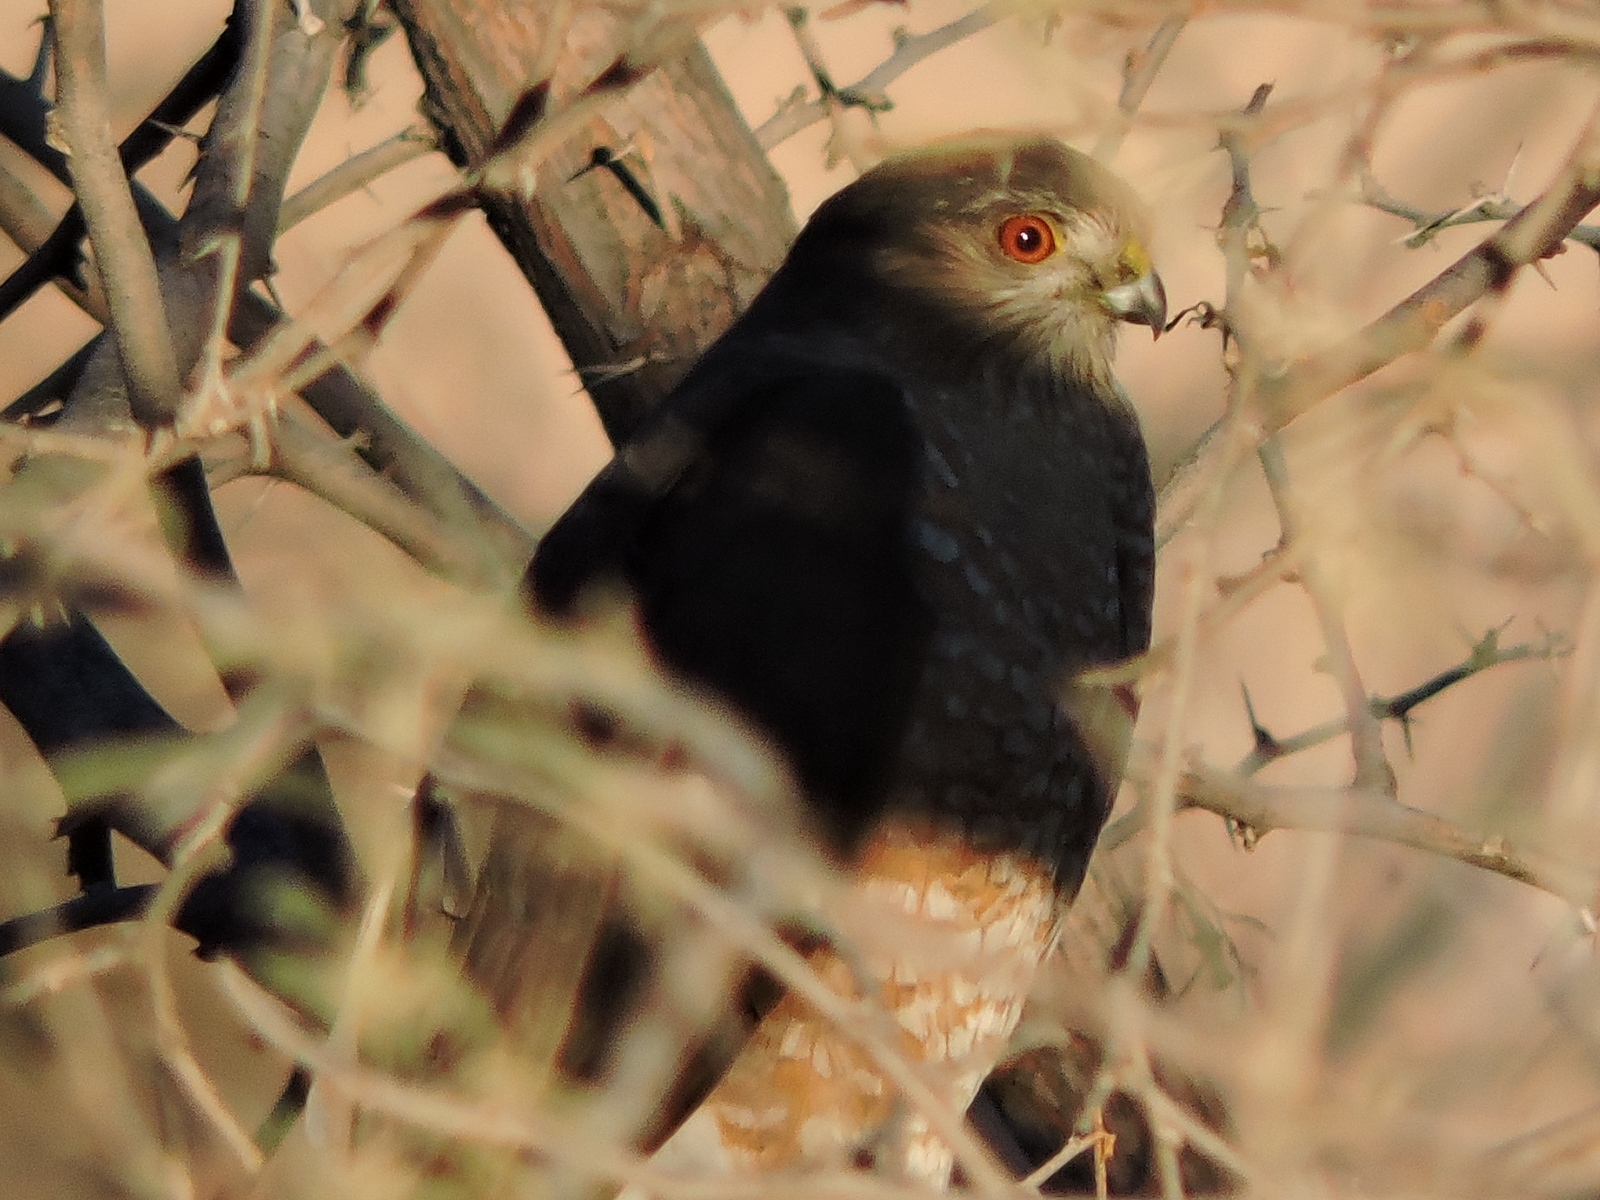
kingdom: Animalia
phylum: Chordata
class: Aves
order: Accipitriformes
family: Accipitridae
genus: Accipiter
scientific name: Accipiter striatus
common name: Sharp-shinned hawk
